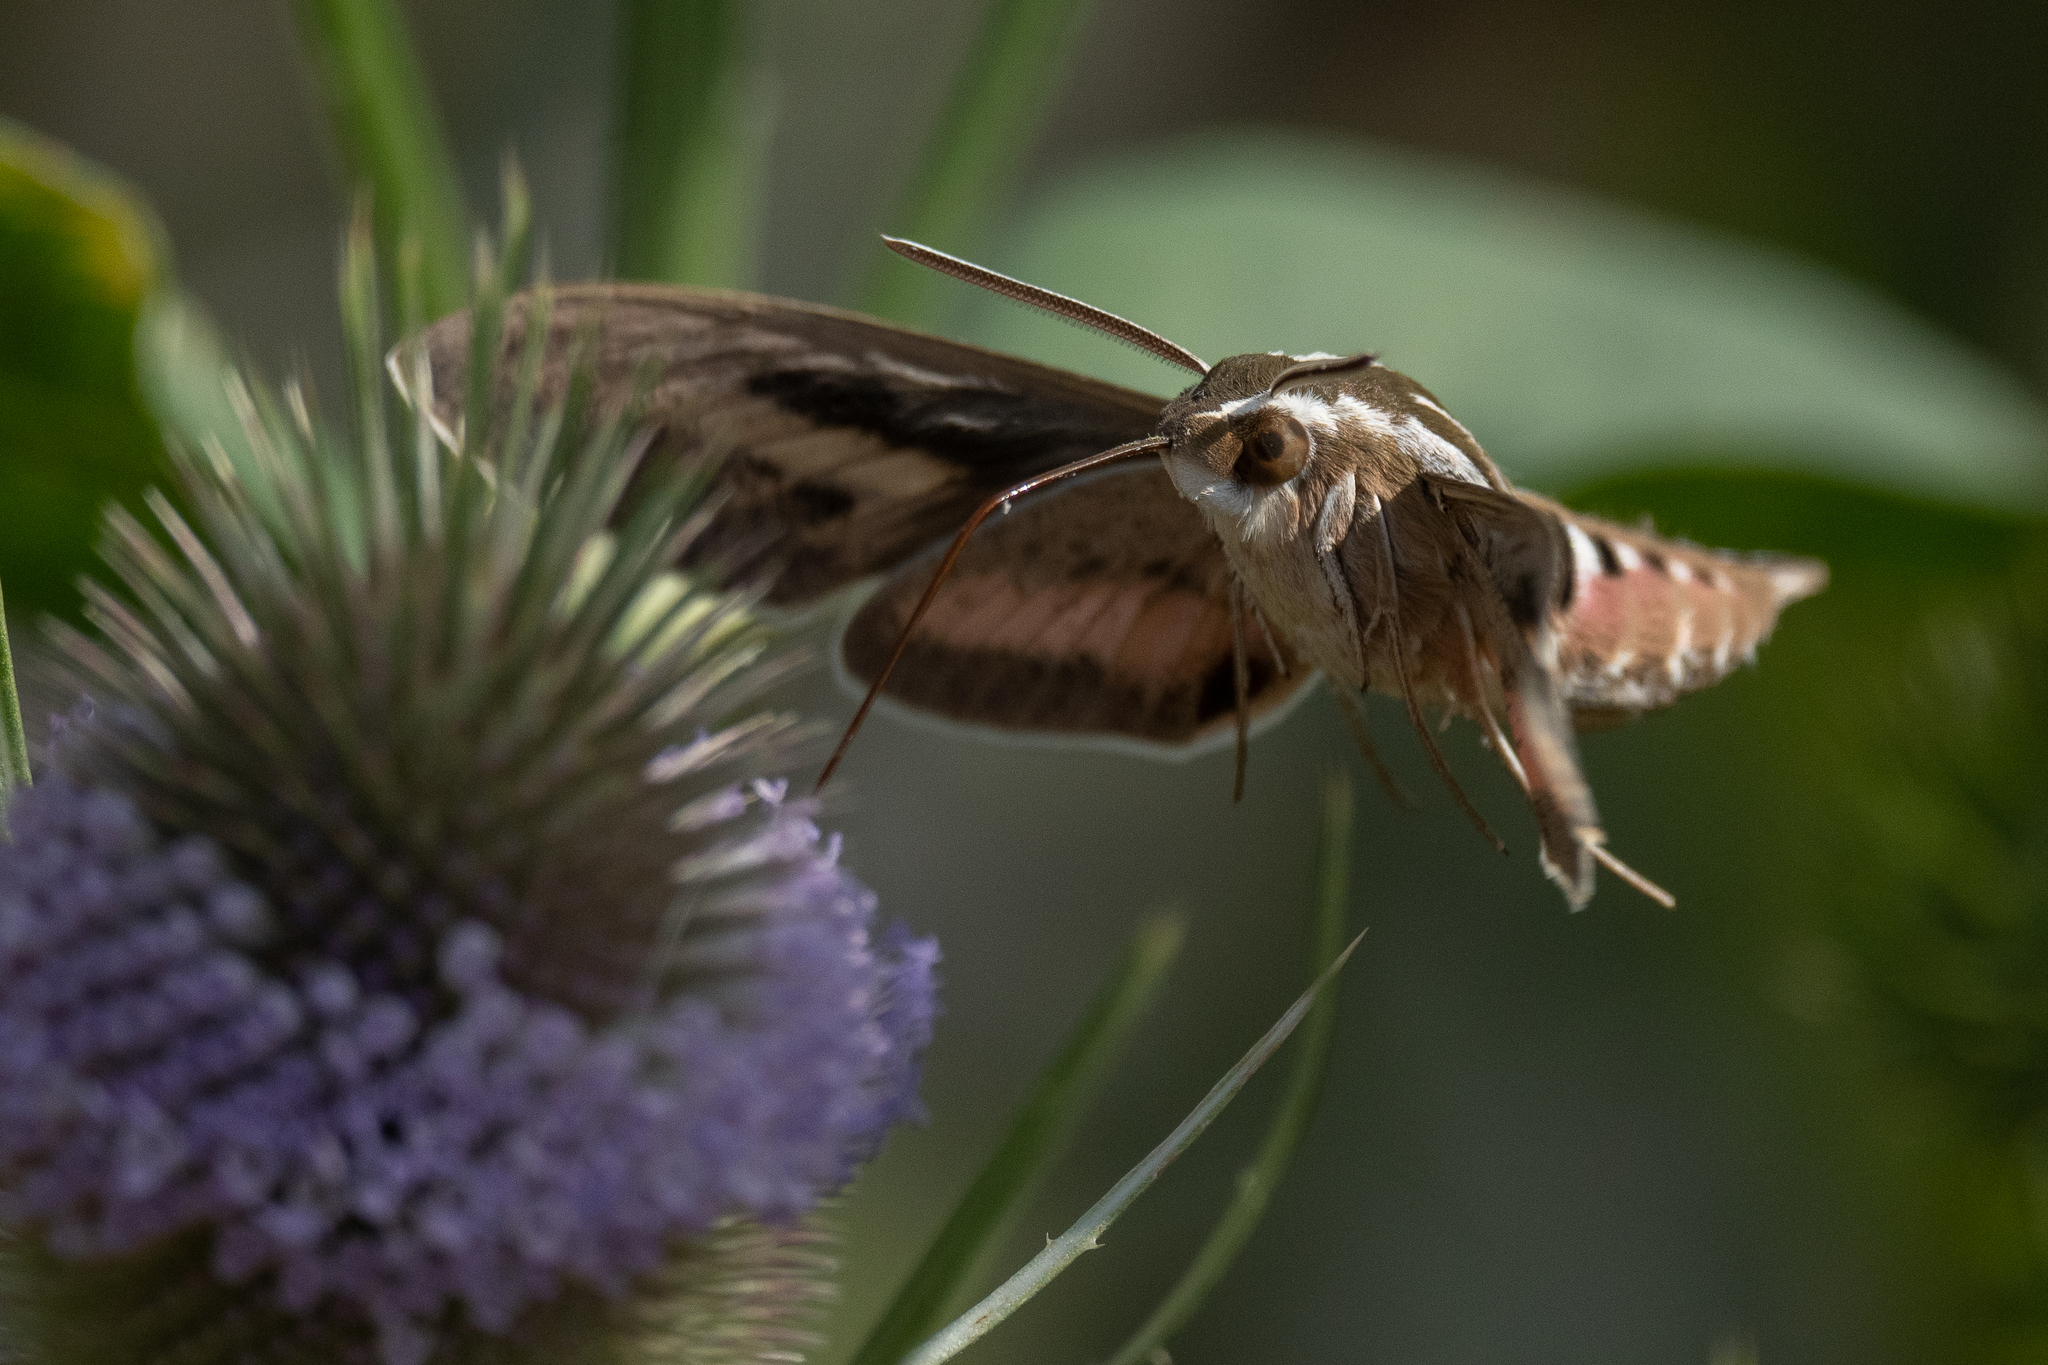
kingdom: Animalia
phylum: Arthropoda
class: Insecta
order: Lepidoptera
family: Sphingidae
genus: Hyles
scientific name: Hyles lineata
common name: White-lined sphinx
